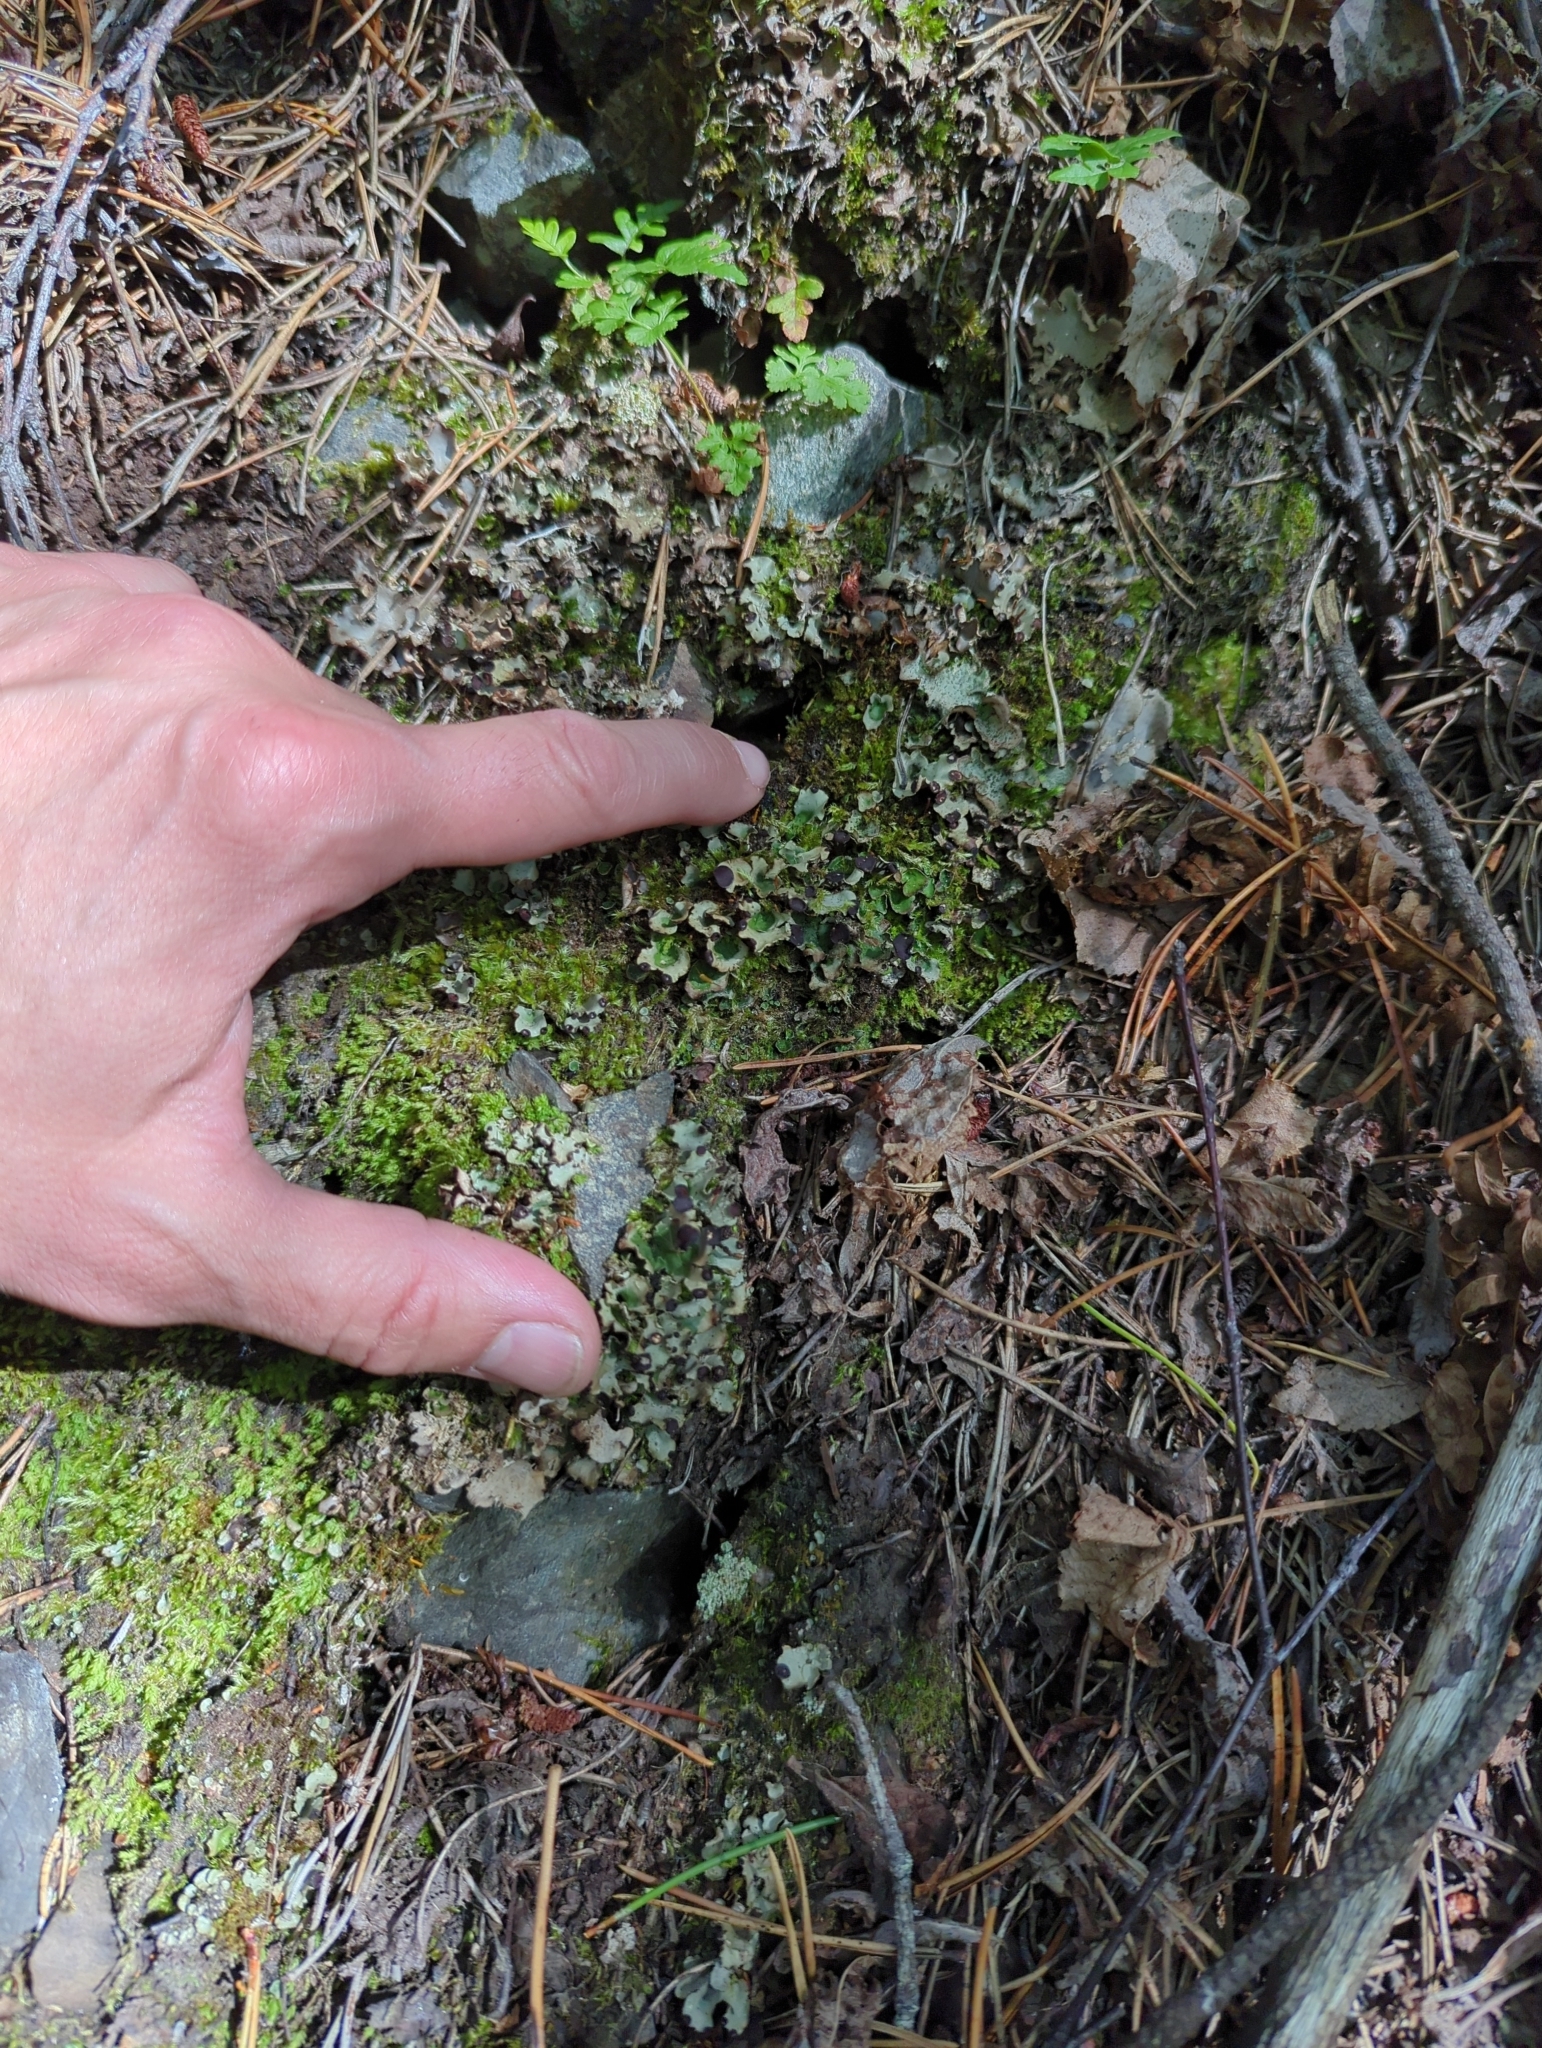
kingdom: Fungi
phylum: Ascomycota
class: Lecanoromycetes
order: Peltigerales
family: Peltigeraceae
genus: Peltigera
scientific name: Peltigera venosa
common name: Pixie gowns lichen
